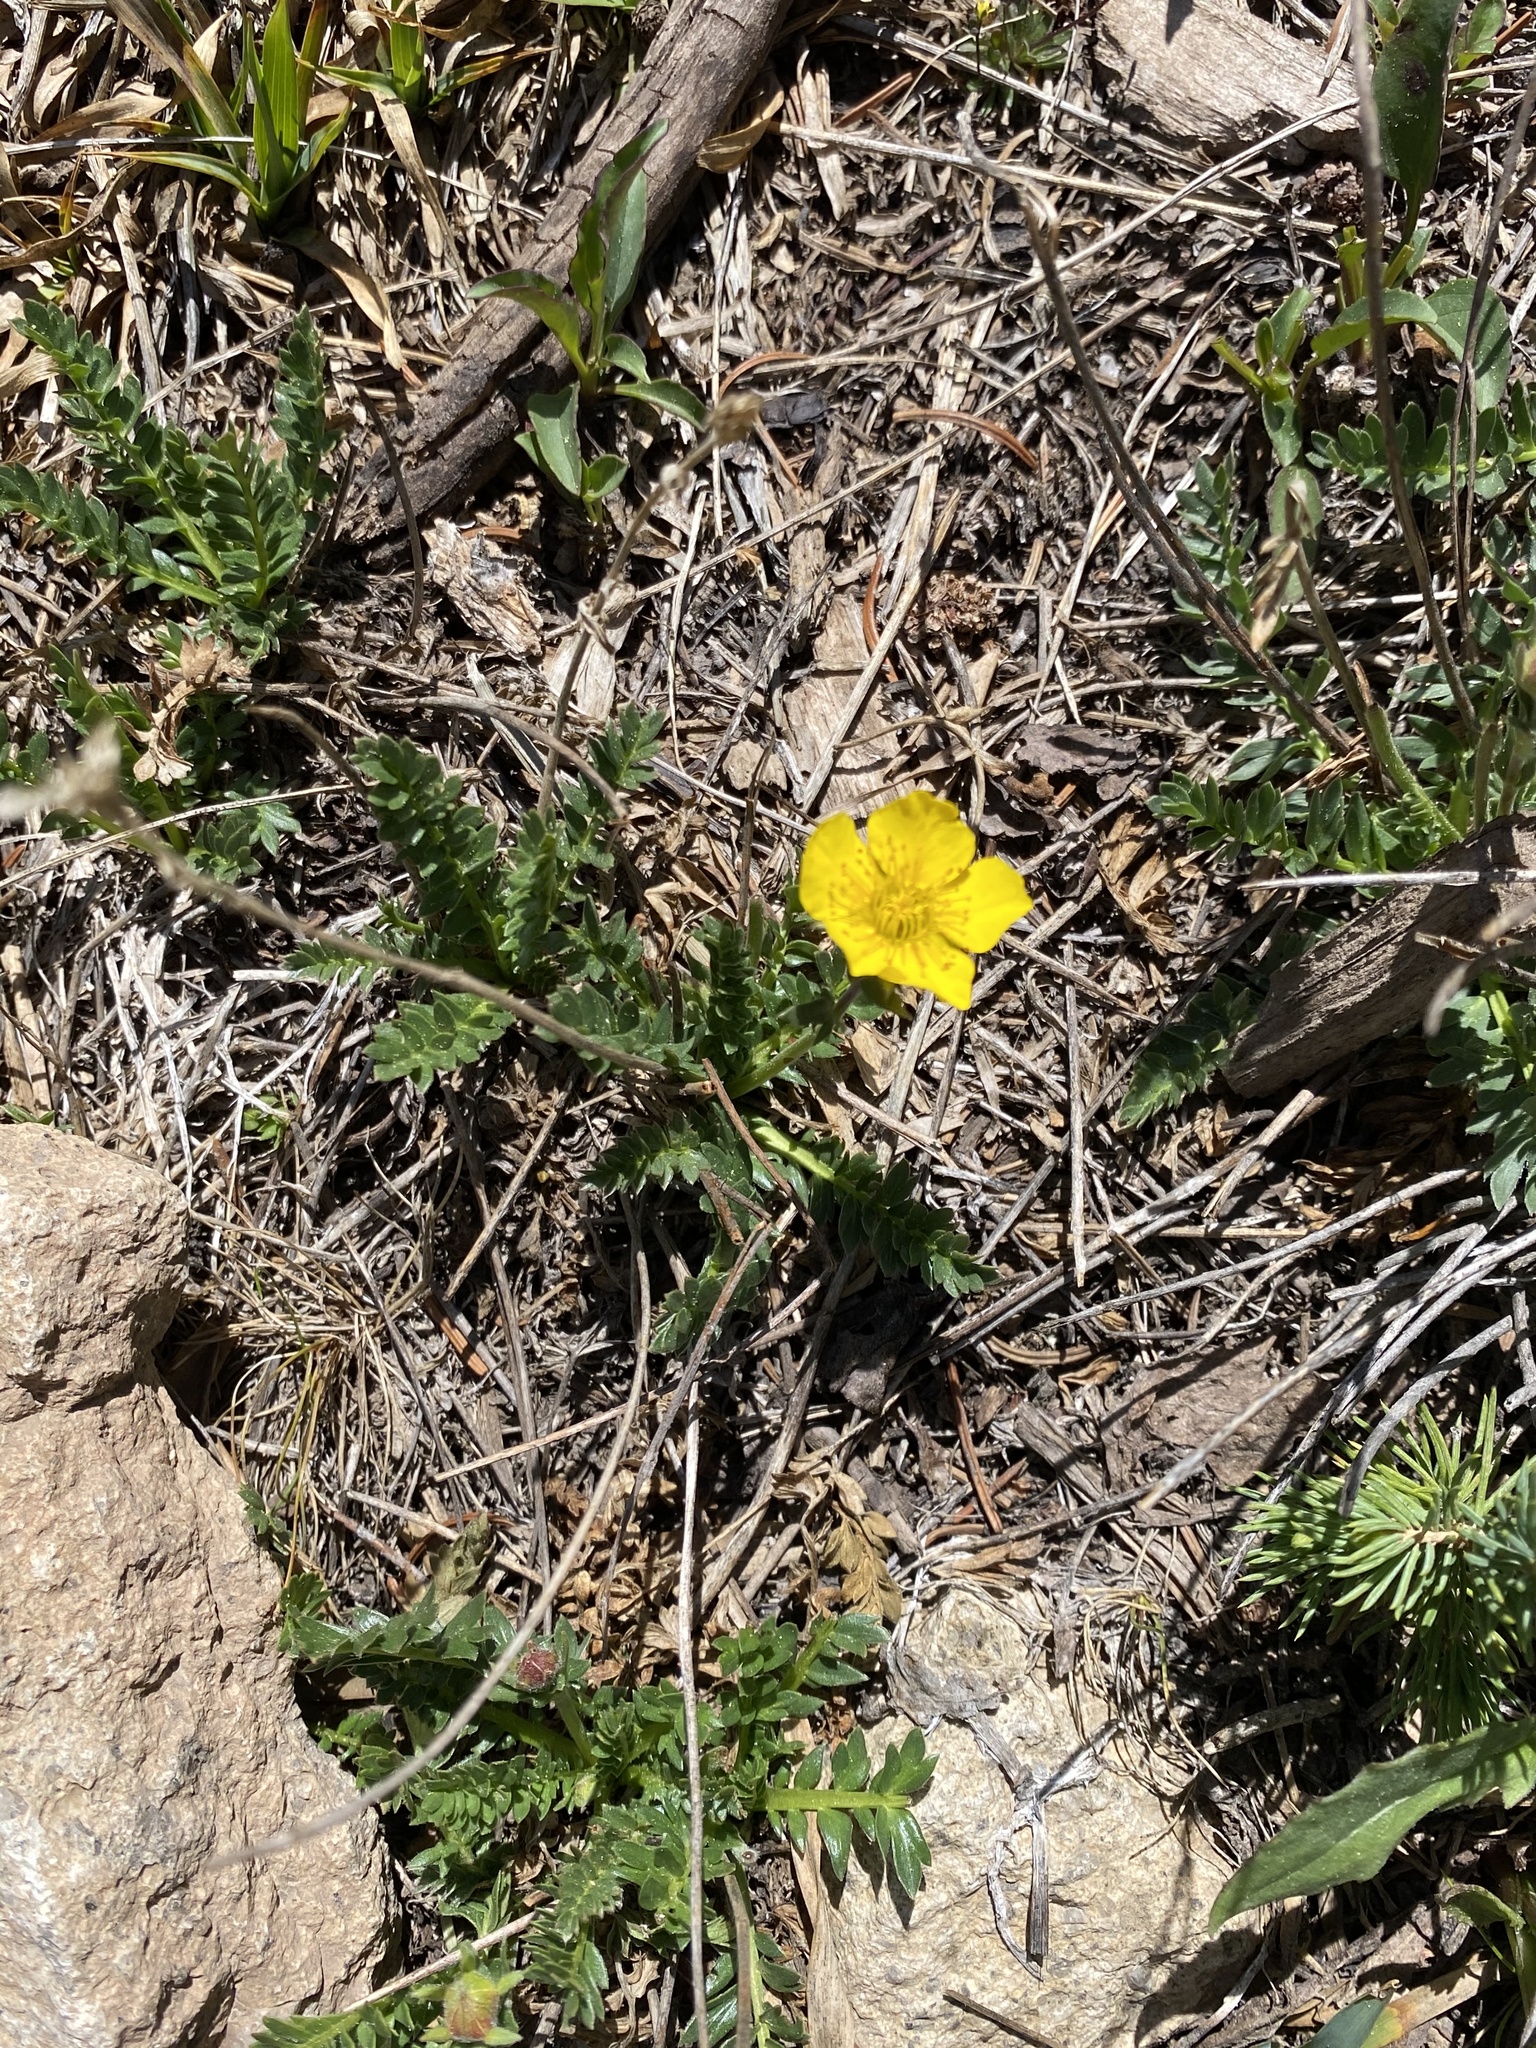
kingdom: Plantae
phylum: Tracheophyta
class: Magnoliopsida
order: Rosales
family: Rosaceae
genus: Geum
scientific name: Geum rossii
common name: Alpine avens
